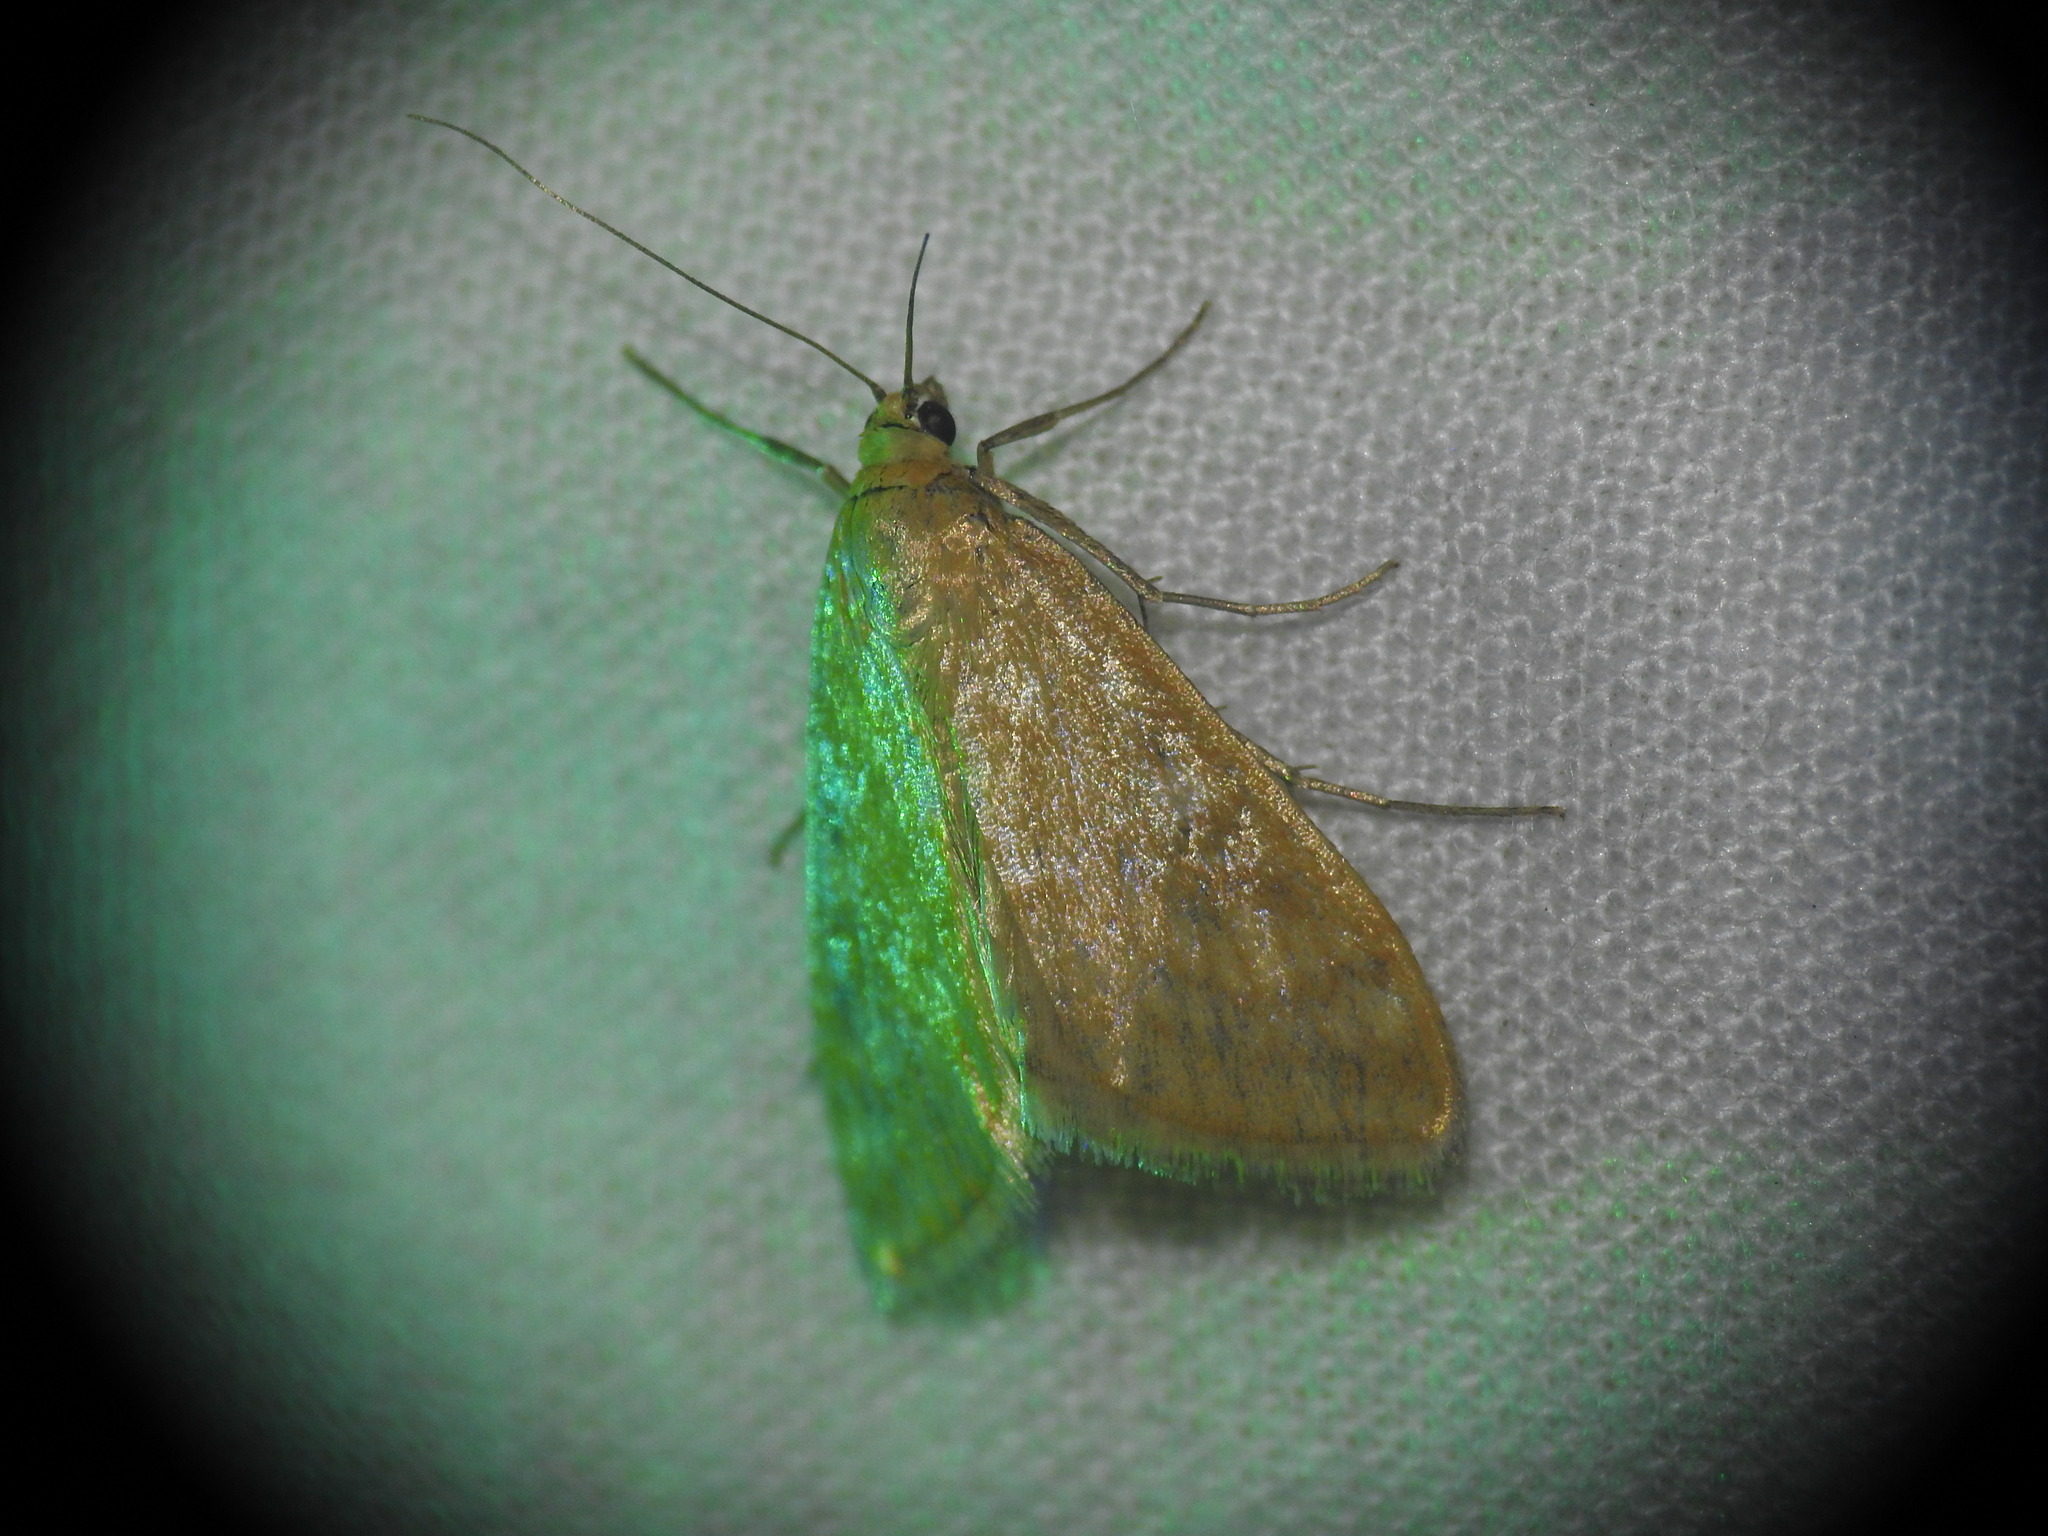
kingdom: Animalia
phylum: Arthropoda
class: Insecta
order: Lepidoptera
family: Crambidae
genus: Sitochroa
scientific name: Sitochroa verticalis
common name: Lesser pearl
